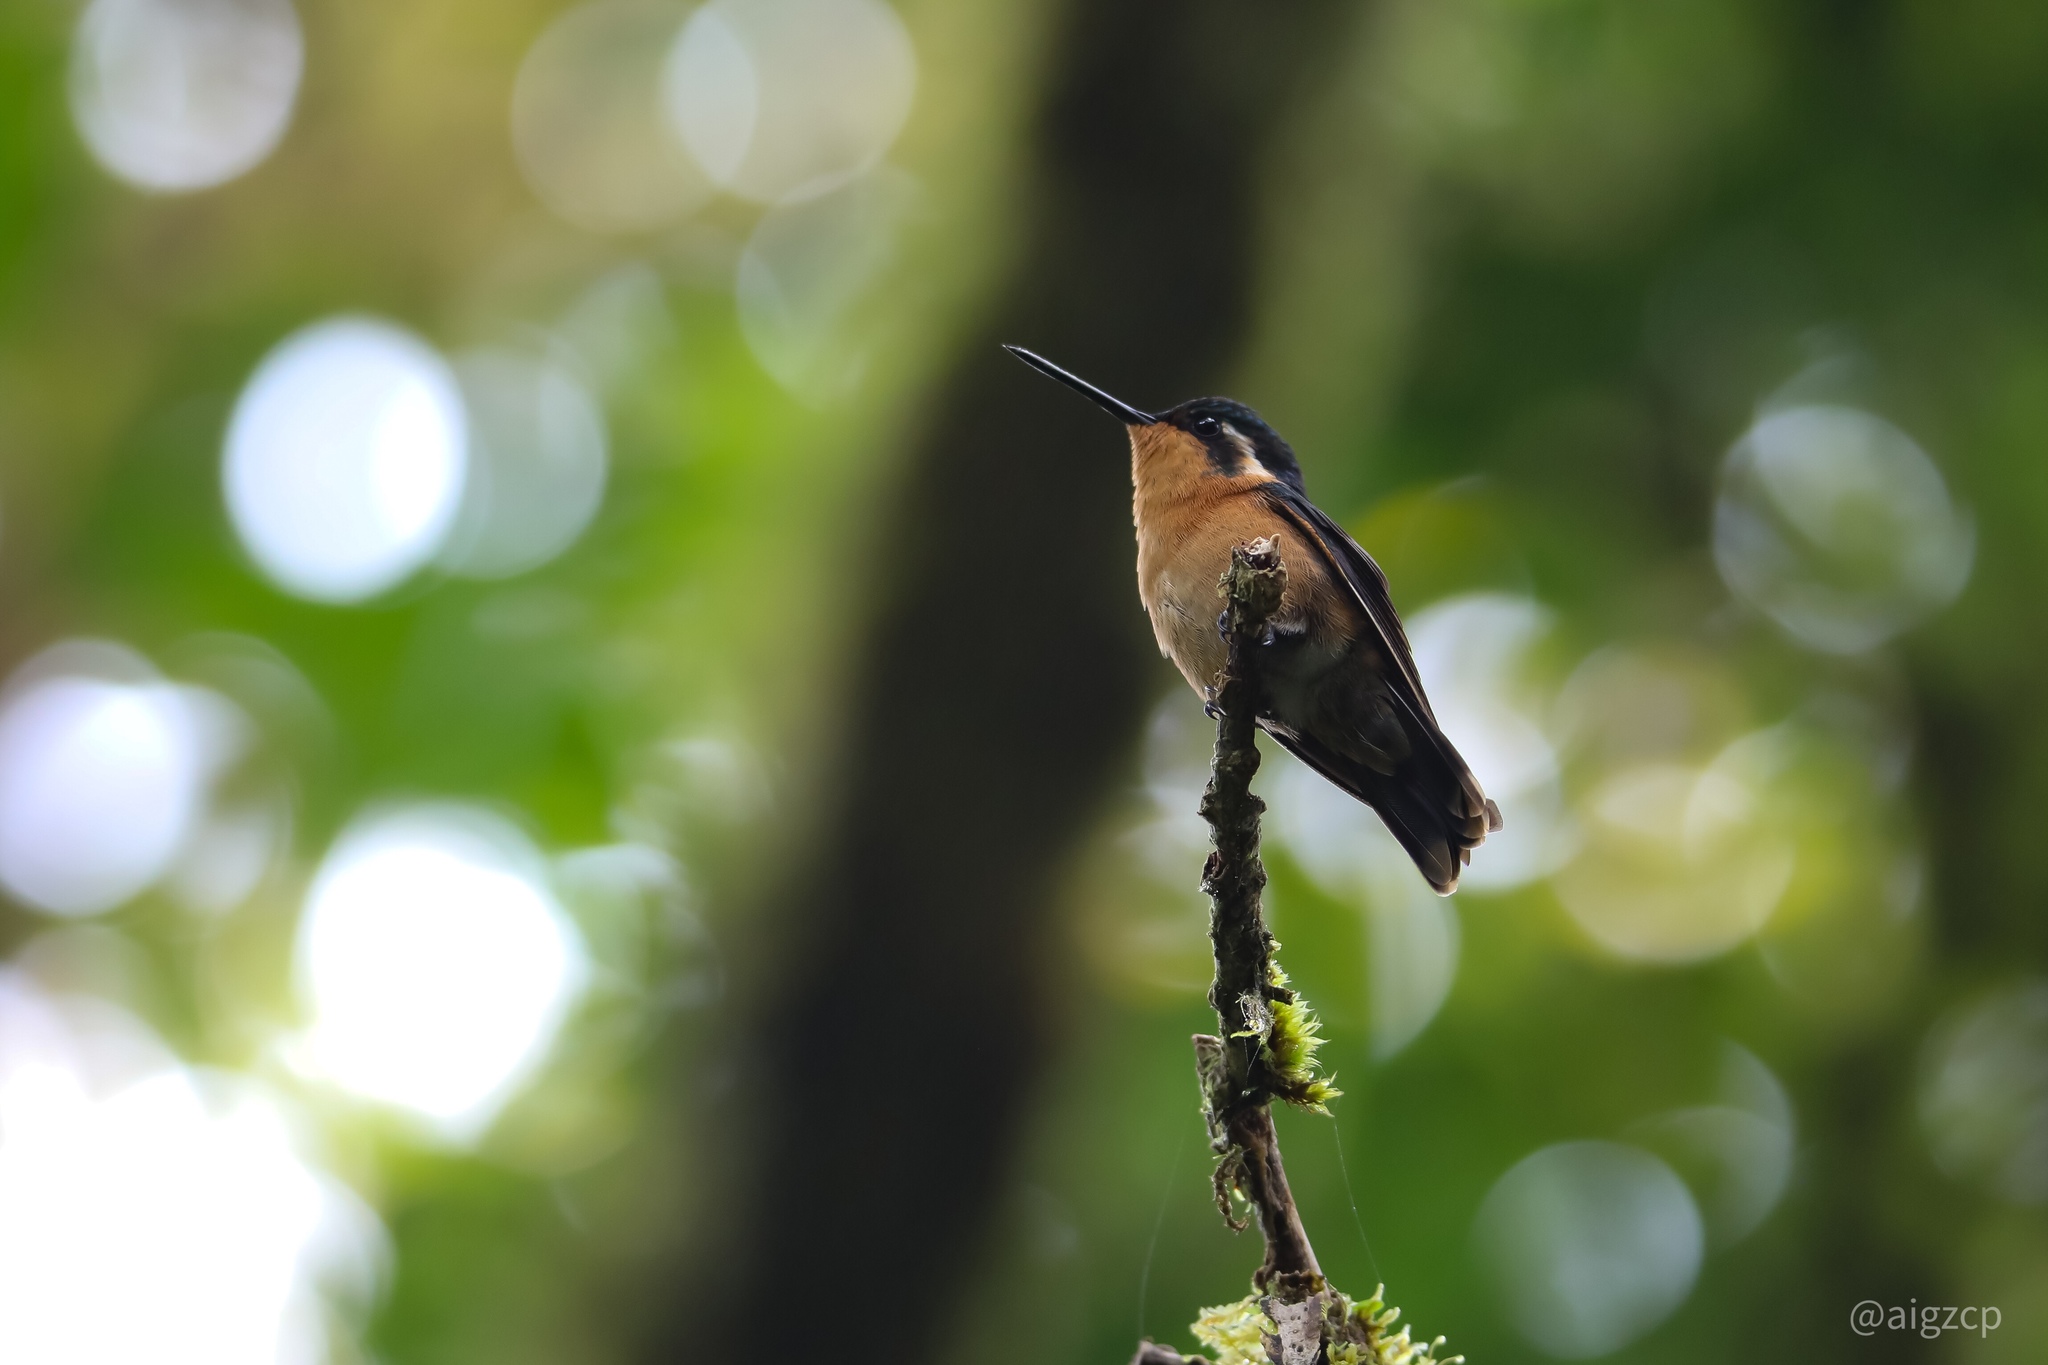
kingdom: Animalia
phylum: Chordata
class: Aves
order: Apodiformes
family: Trochilidae
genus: Lampornis
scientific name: Lampornis calolaemus
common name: Purple-throated mountain-gem
